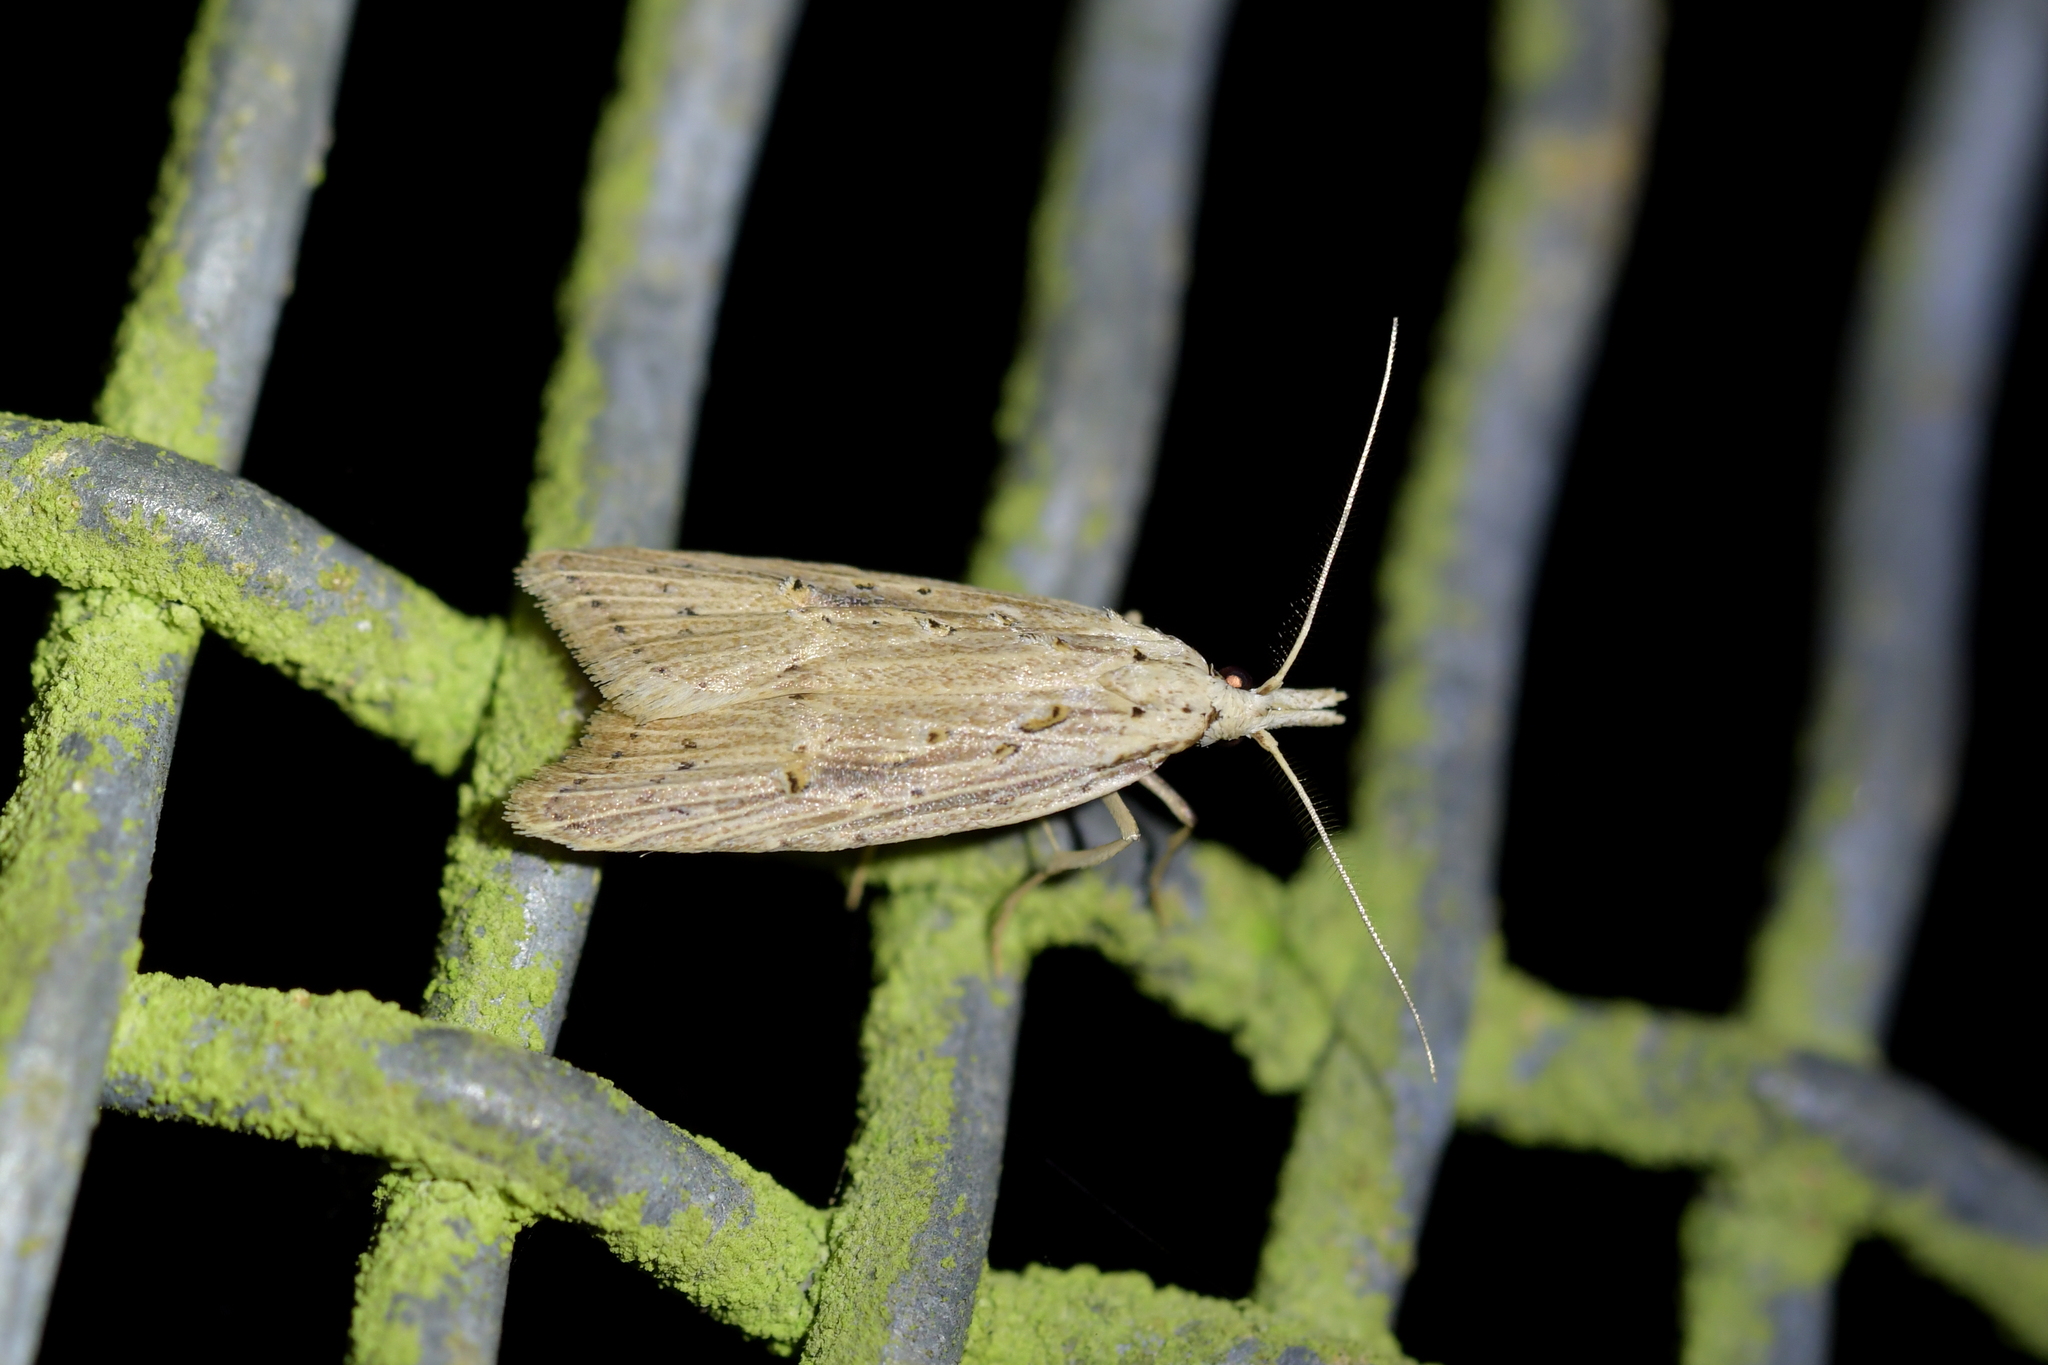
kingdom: Animalia
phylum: Arthropoda
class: Insecta
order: Lepidoptera
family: Carposinidae
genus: Carposina
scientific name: Carposina Heterocrossa exochana
